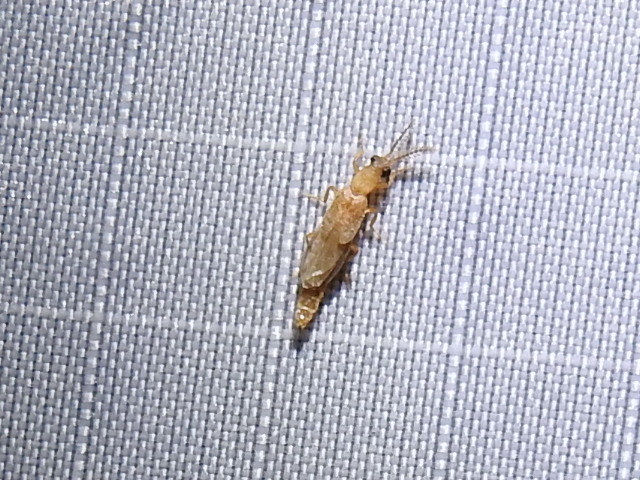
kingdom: Animalia
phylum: Arthropoda
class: Insecta
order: Coleoptera
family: Phengodidae
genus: Cenophengus
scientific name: Cenophengus pallidus
